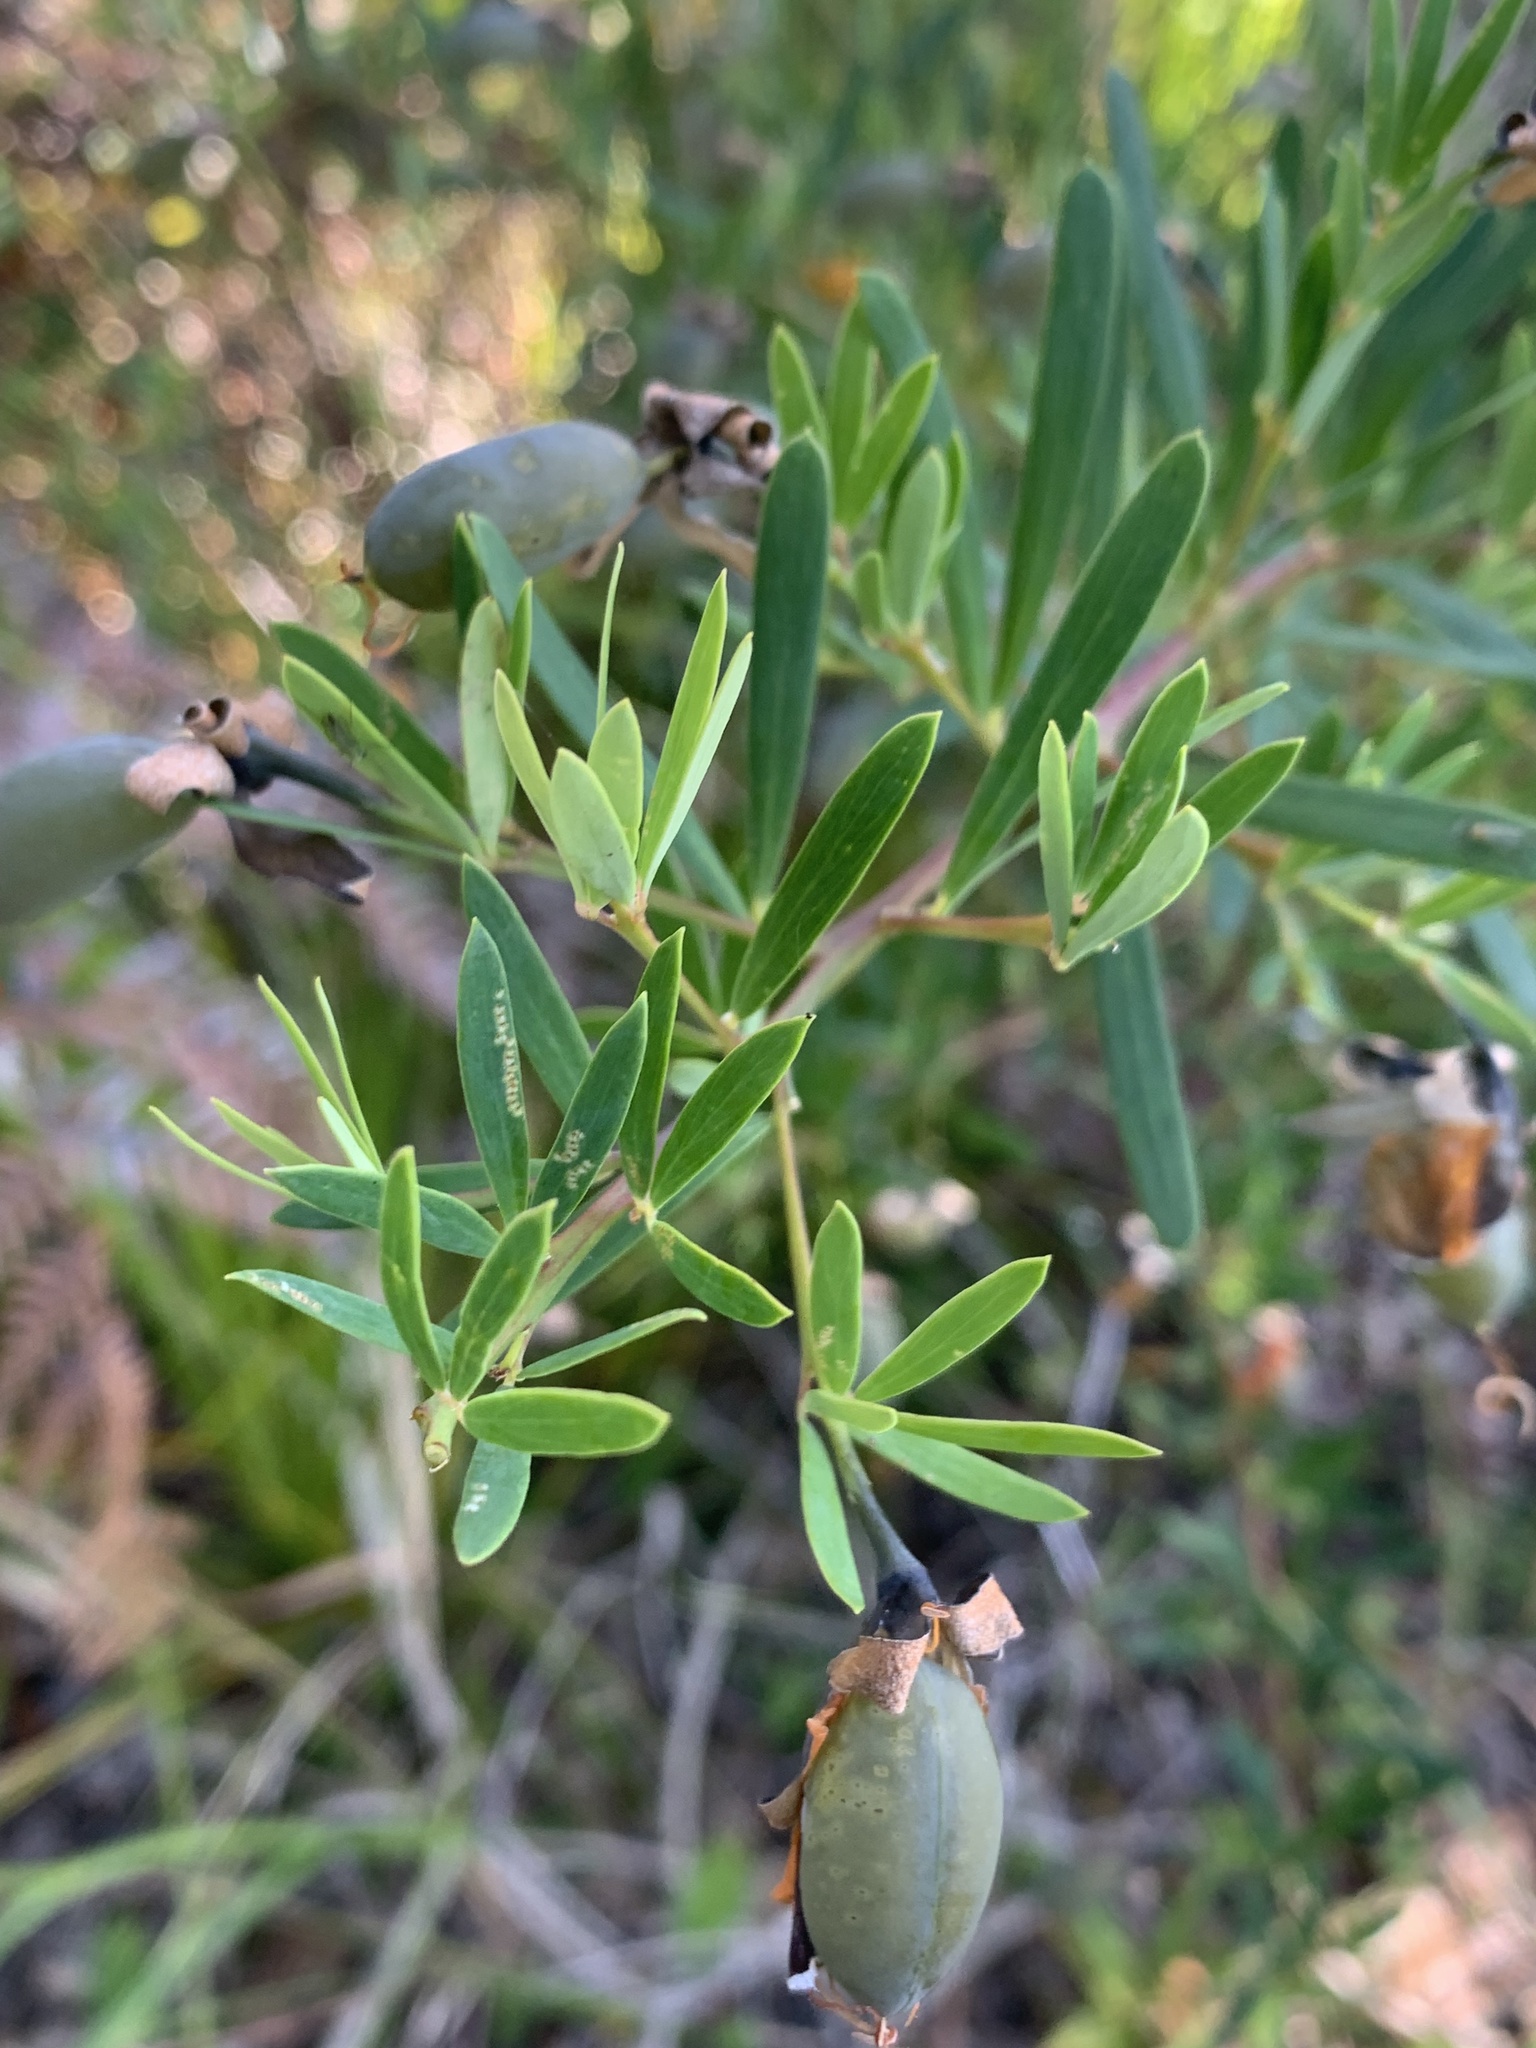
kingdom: Plantae
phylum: Tracheophyta
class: Magnoliopsida
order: Fabales
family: Fabaceae
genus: Gompholobium
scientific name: Gompholobium latifolium
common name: Broadleaf wedge-pea
